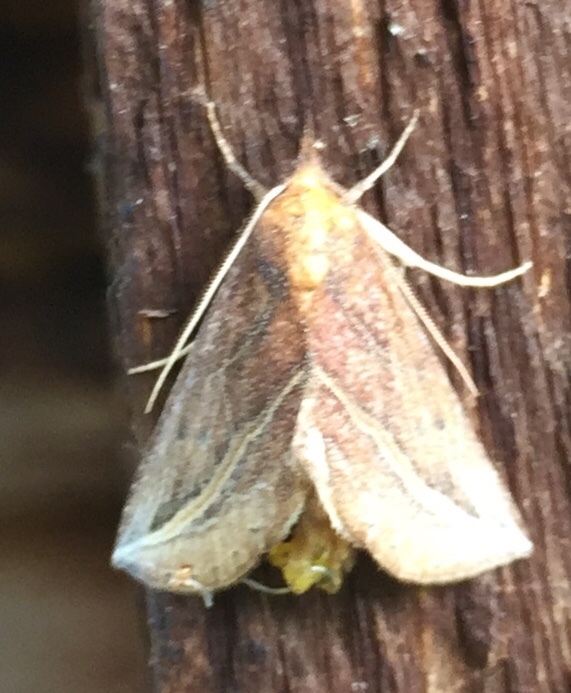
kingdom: Animalia
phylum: Arthropoda
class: Insecta
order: Lepidoptera
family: Erebidae
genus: Phyprosopus
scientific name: Phyprosopus callitrichoides
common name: Curved-lined owlet
